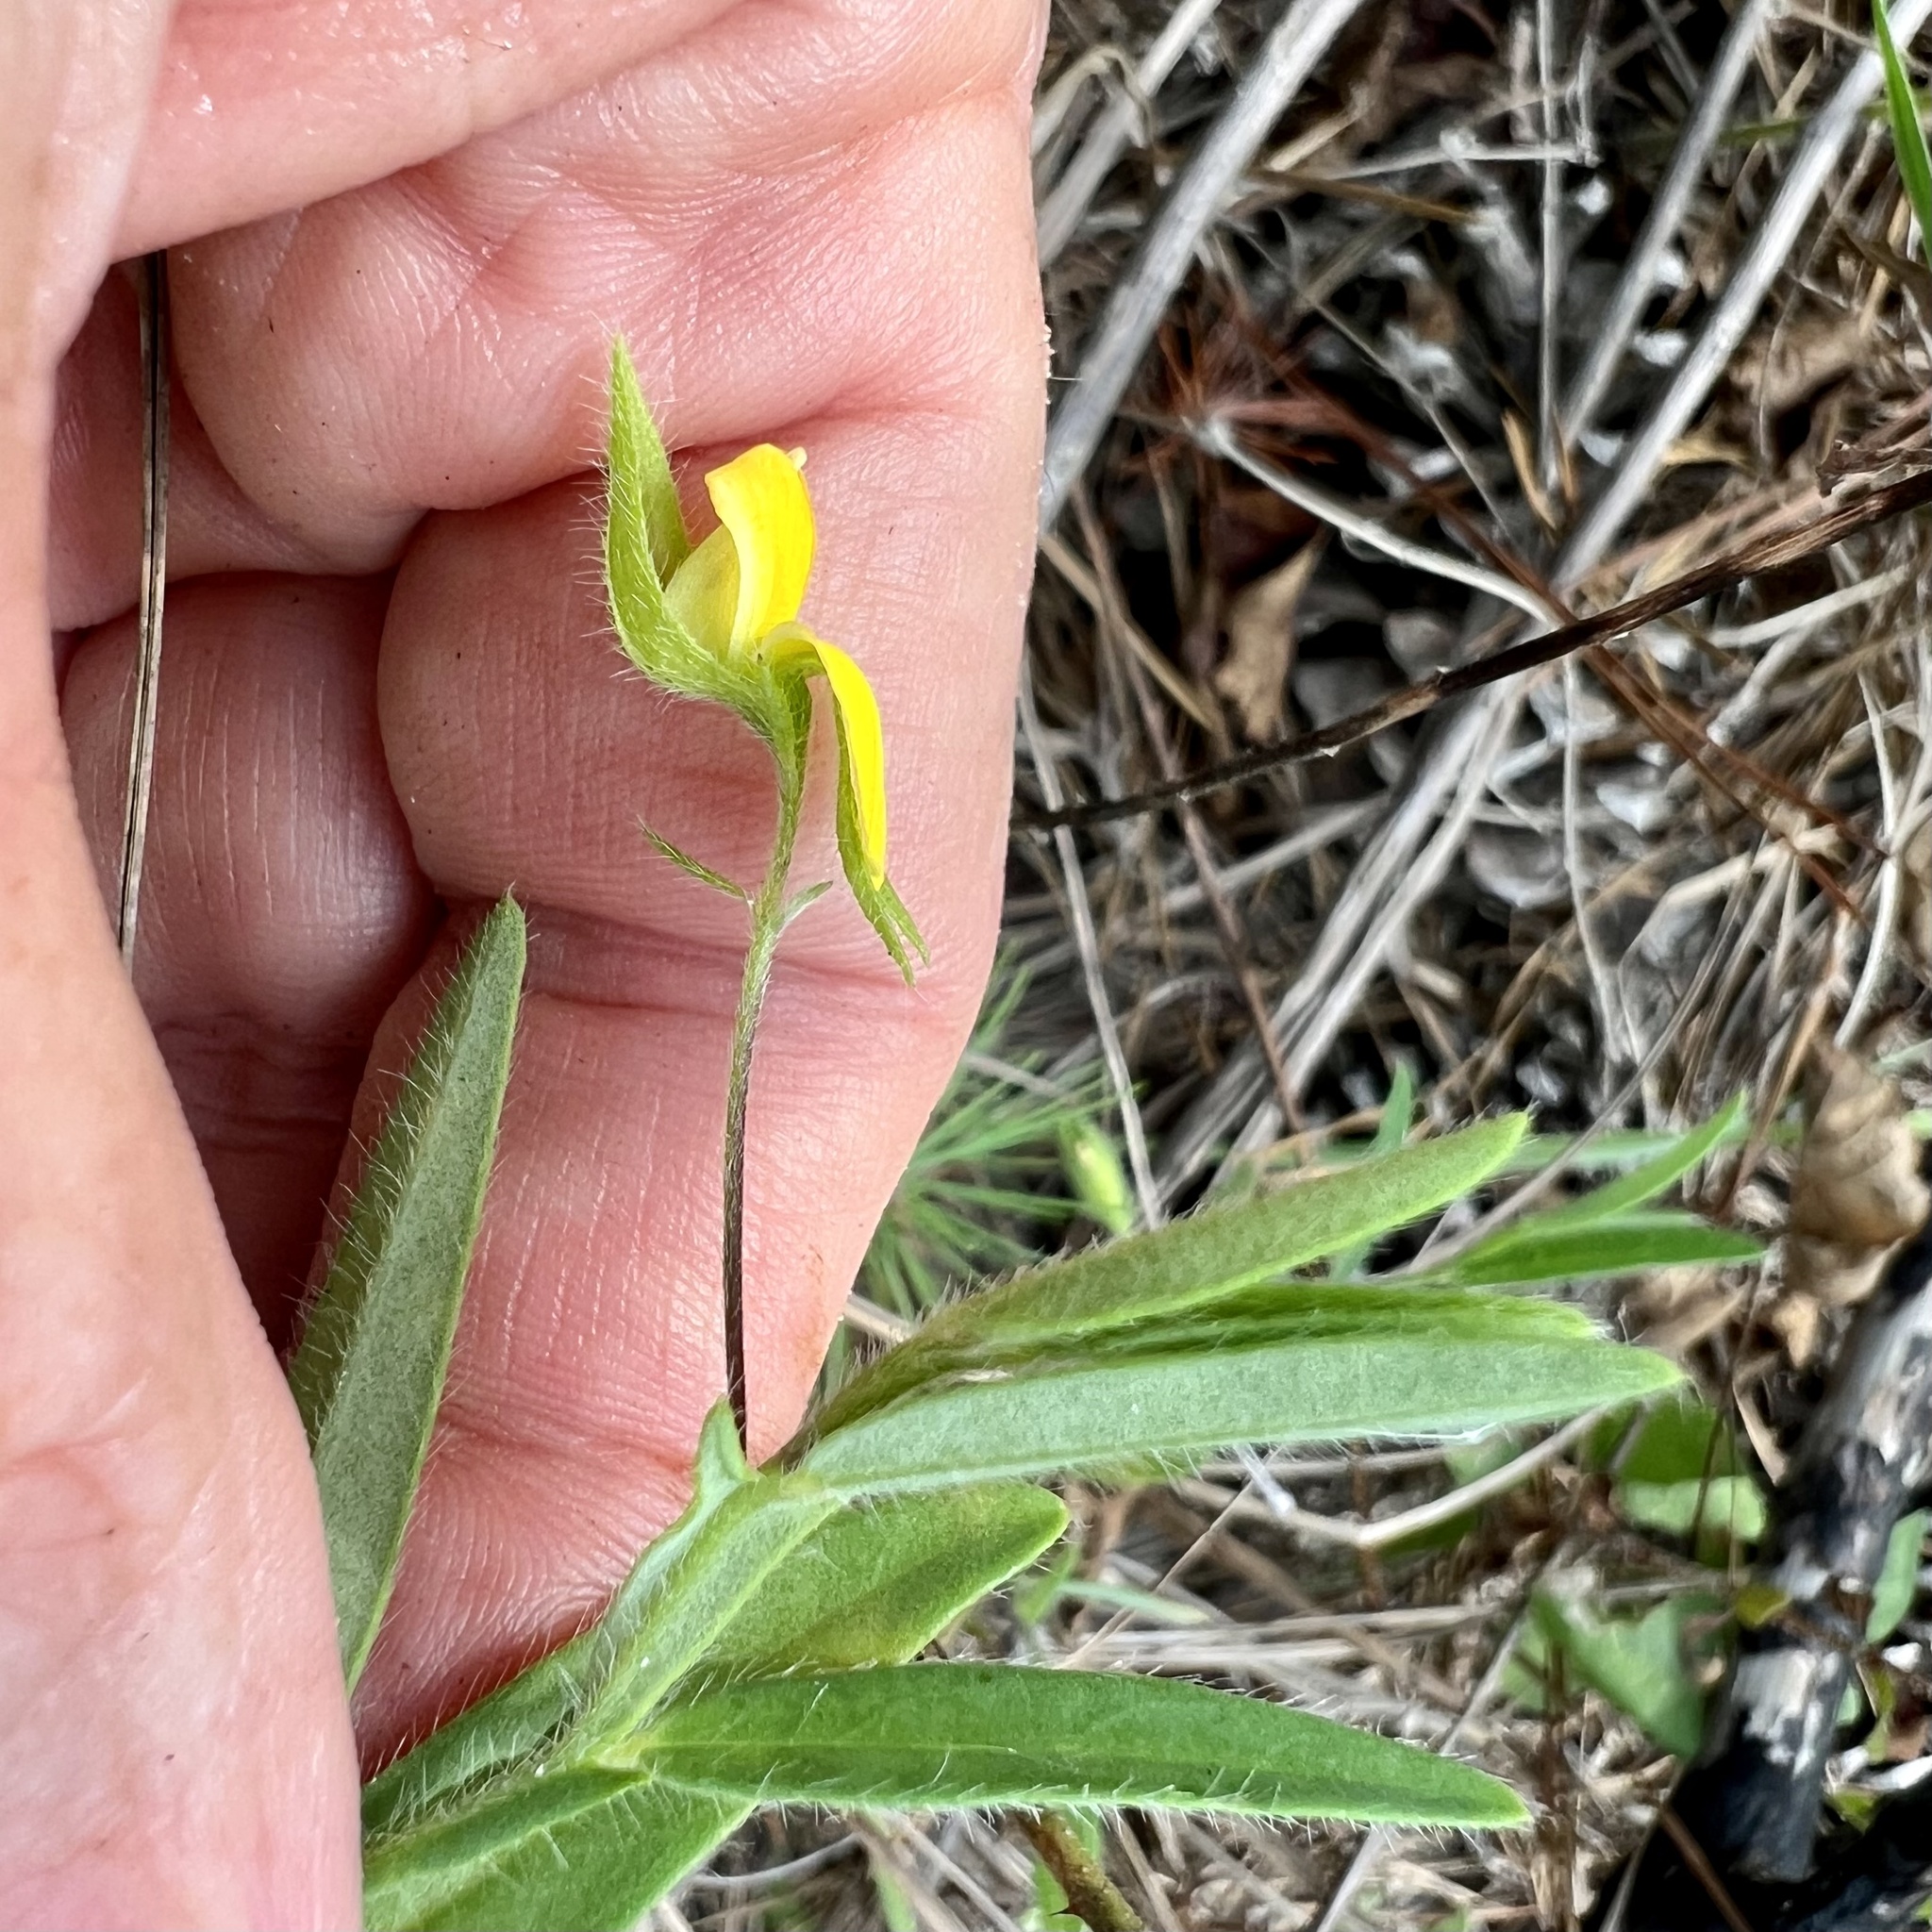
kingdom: Plantae
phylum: Tracheophyta
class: Magnoliopsida
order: Fabales
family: Fabaceae
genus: Crotalaria
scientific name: Crotalaria sagittalis
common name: Arrowhead rattlebox
